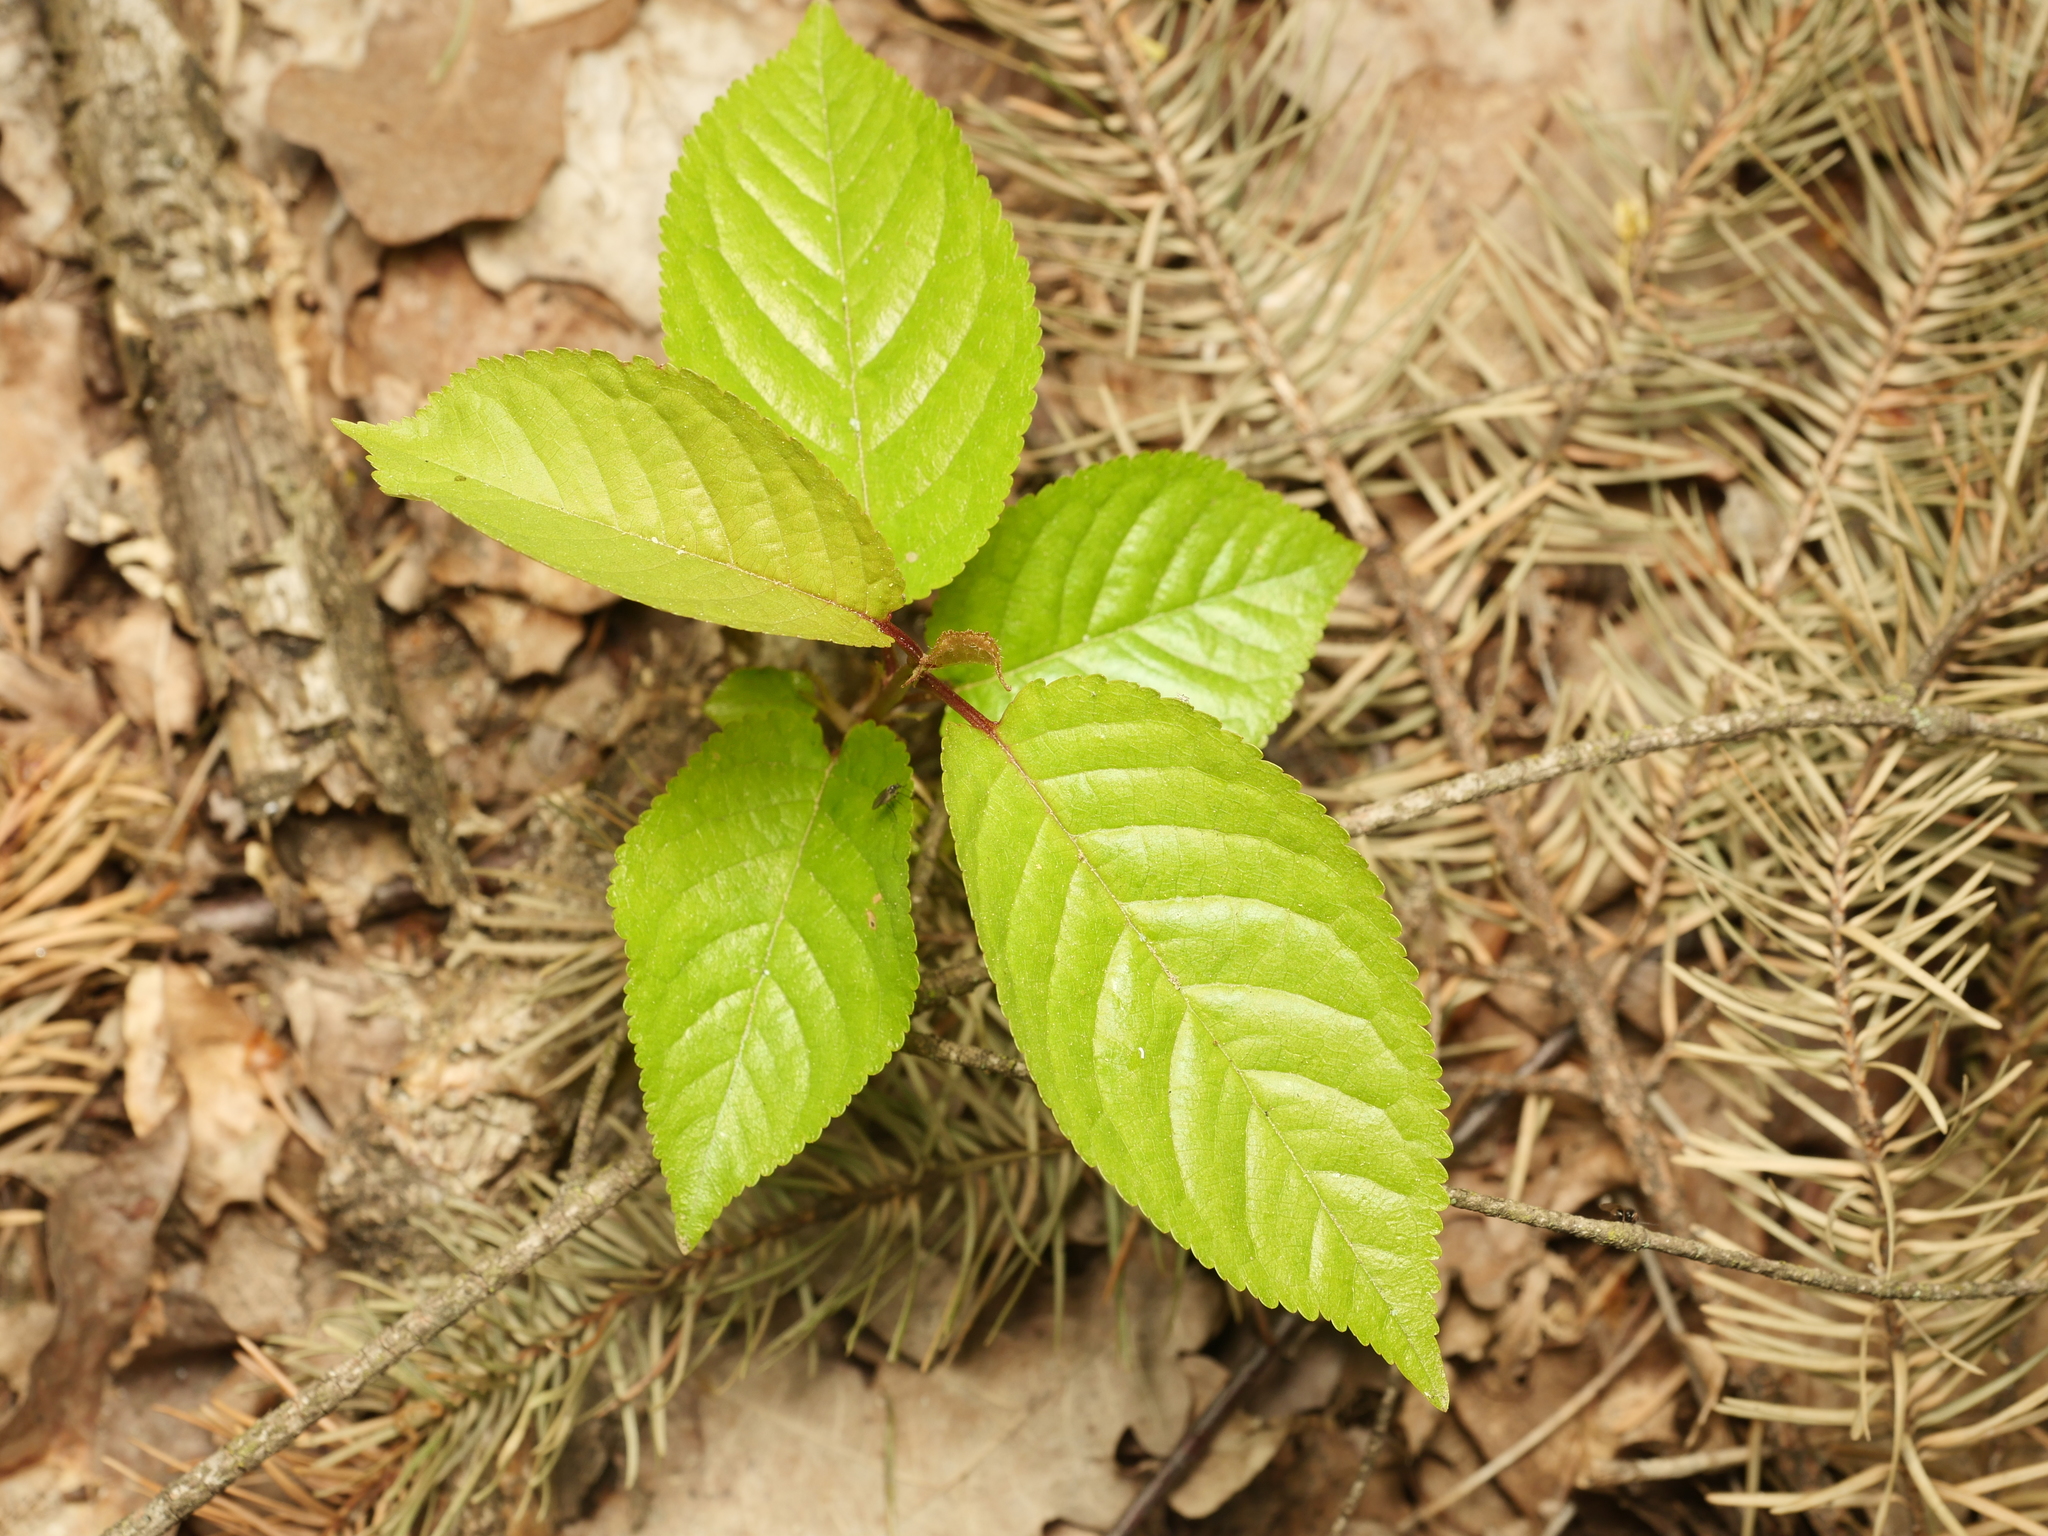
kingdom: Plantae
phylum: Tracheophyta
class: Magnoliopsida
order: Rosales
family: Rosaceae
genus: Prunus
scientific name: Prunus avium
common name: Sweet cherry
